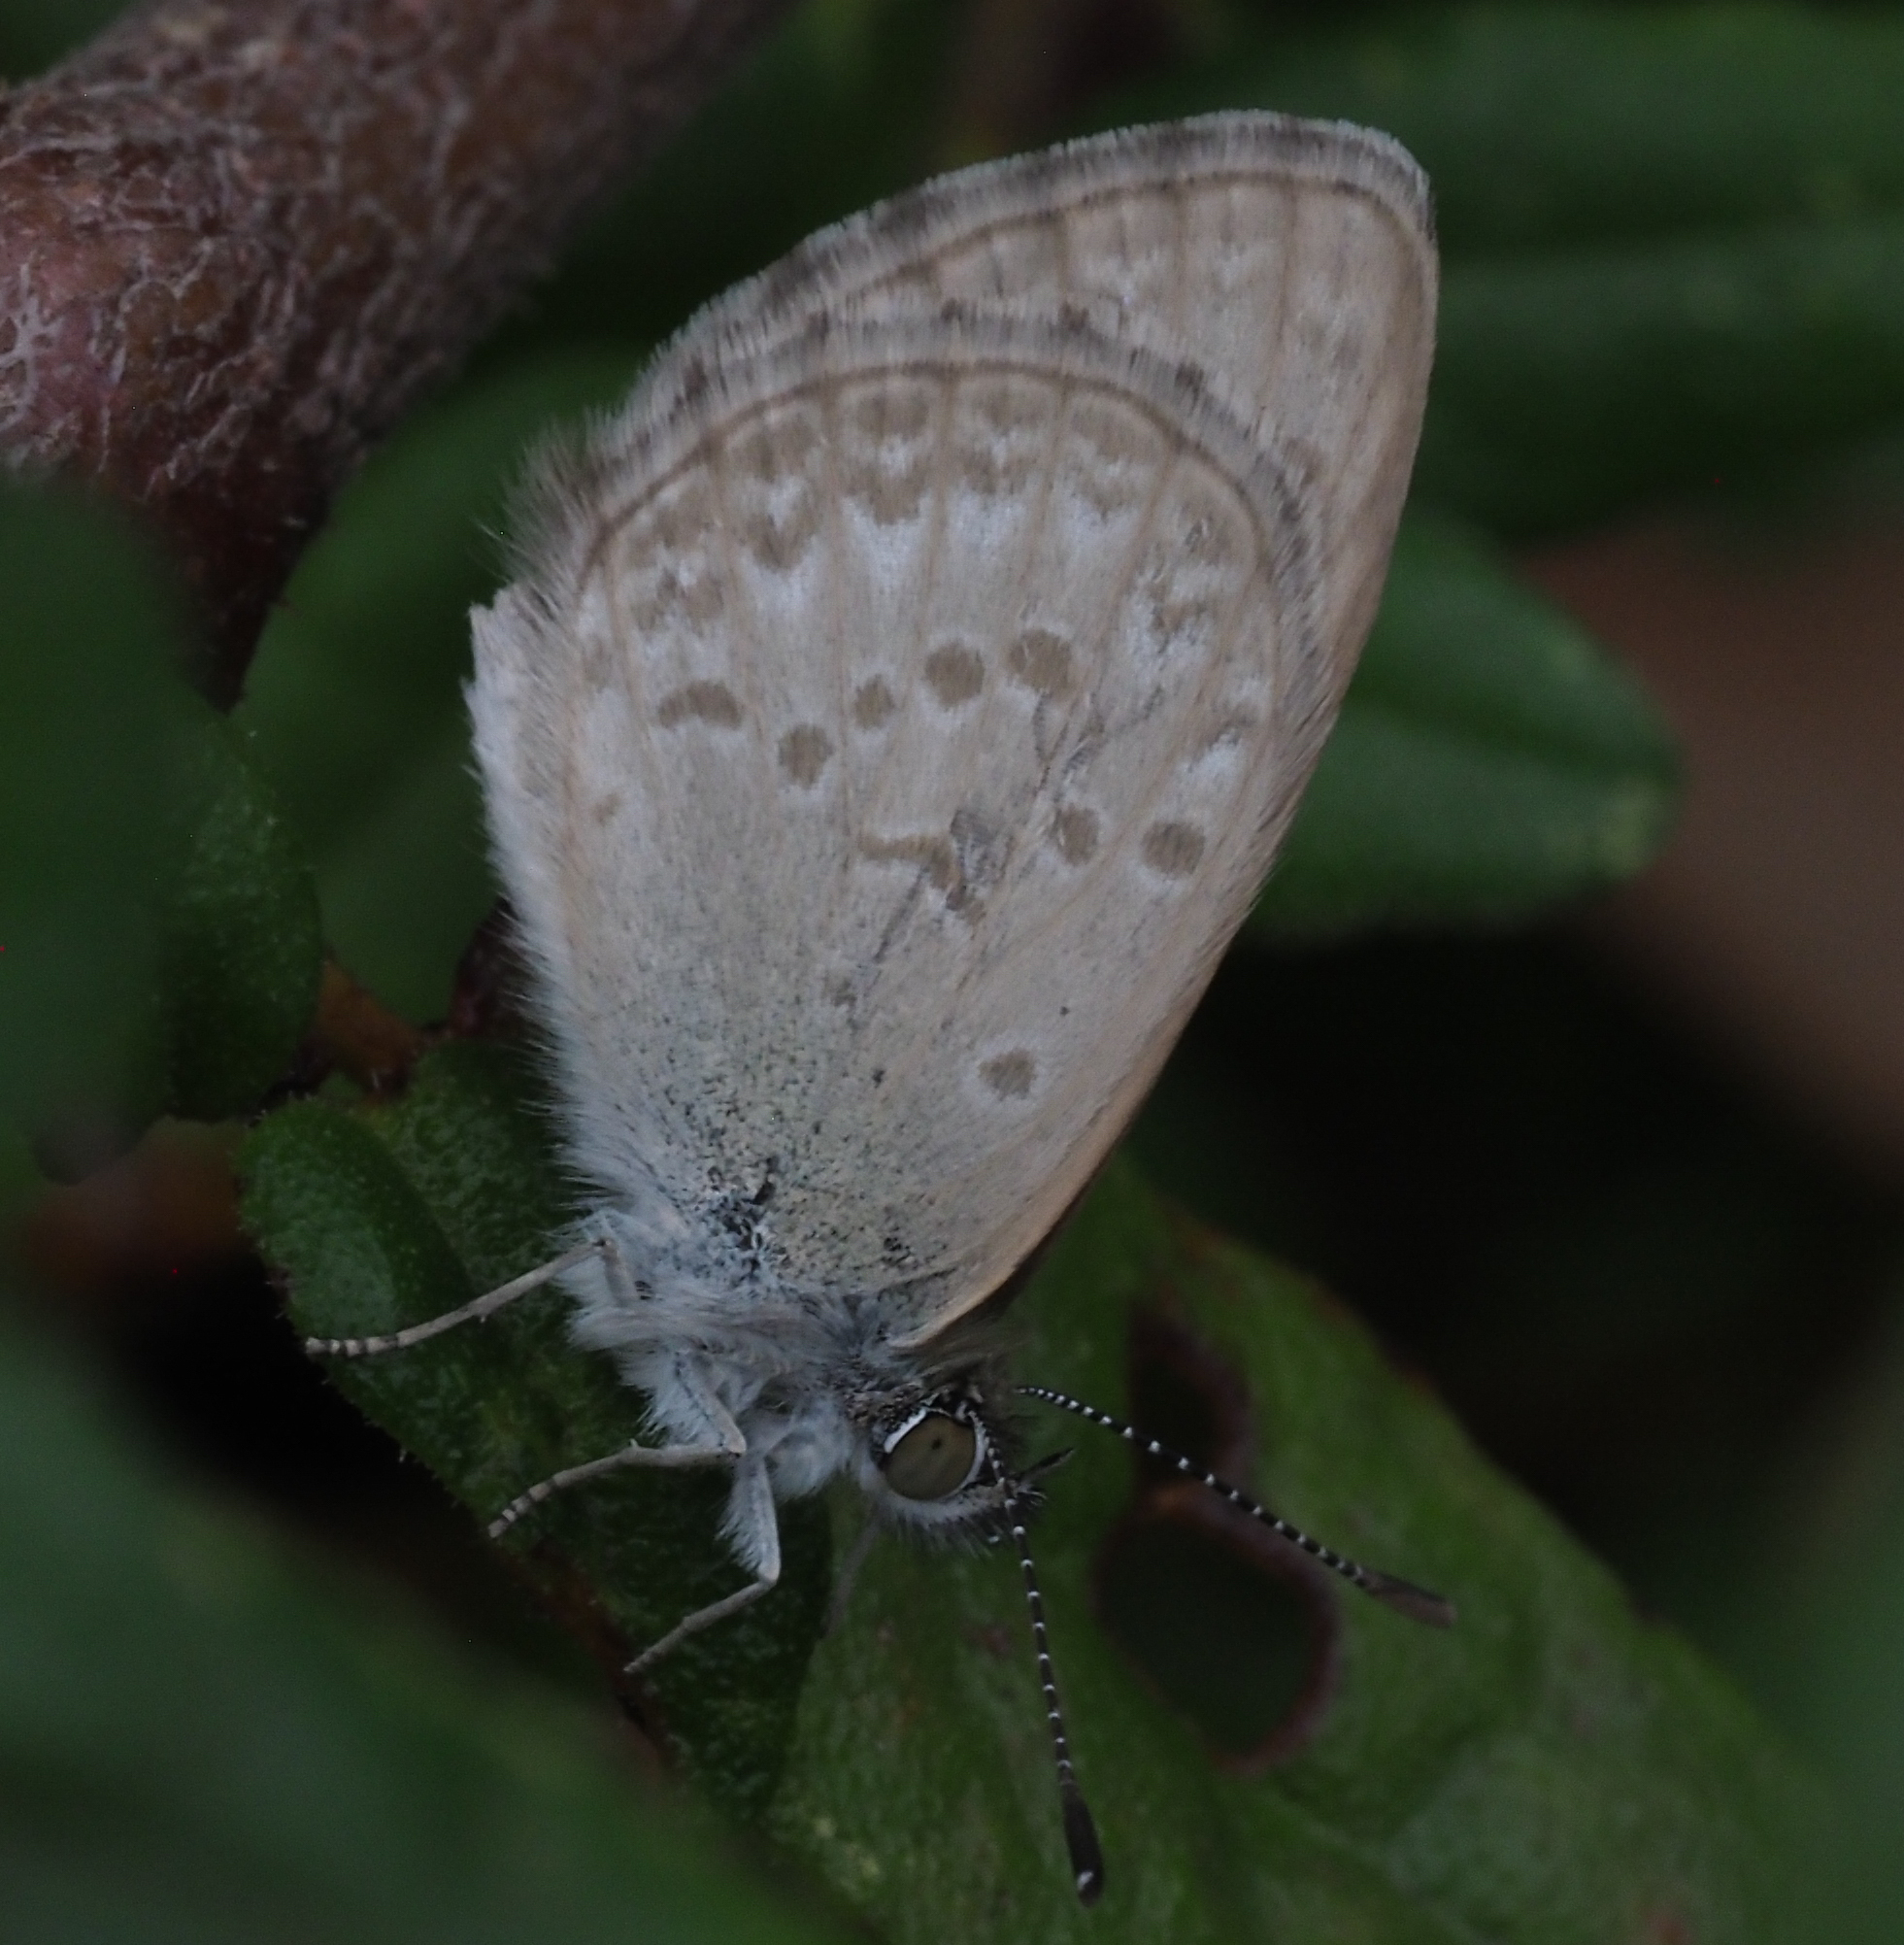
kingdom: Animalia
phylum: Arthropoda
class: Insecta
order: Lepidoptera
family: Lycaenidae
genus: Zizina
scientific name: Zizina otis
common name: Lesser grass blue
